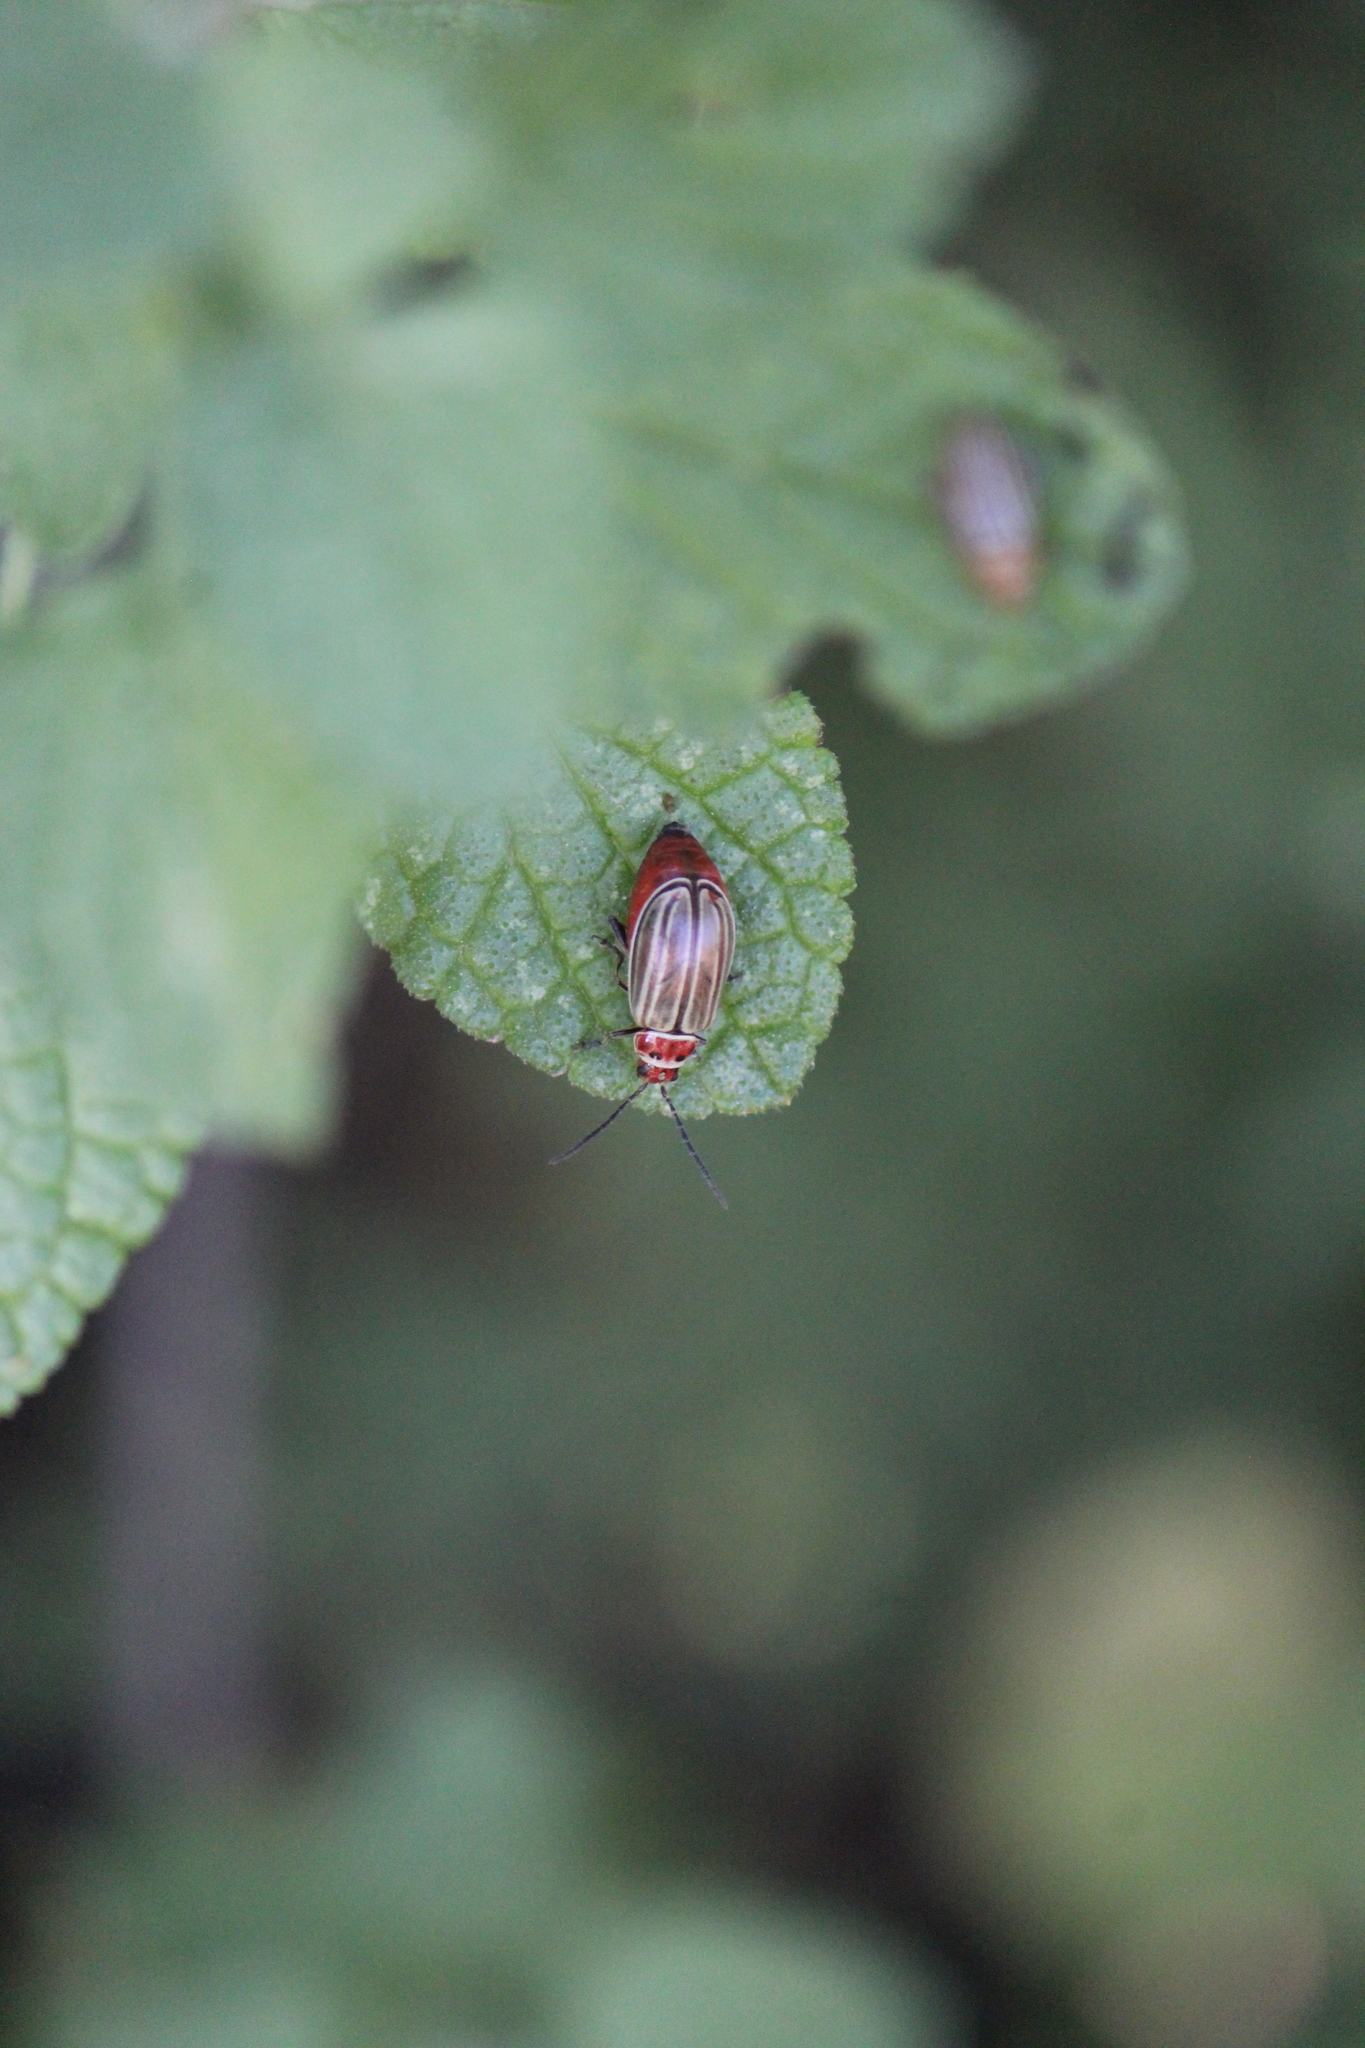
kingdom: Animalia
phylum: Arthropoda
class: Insecta
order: Coleoptera
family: Chrysomelidae
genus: Disonycha
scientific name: Disonycha figurata
